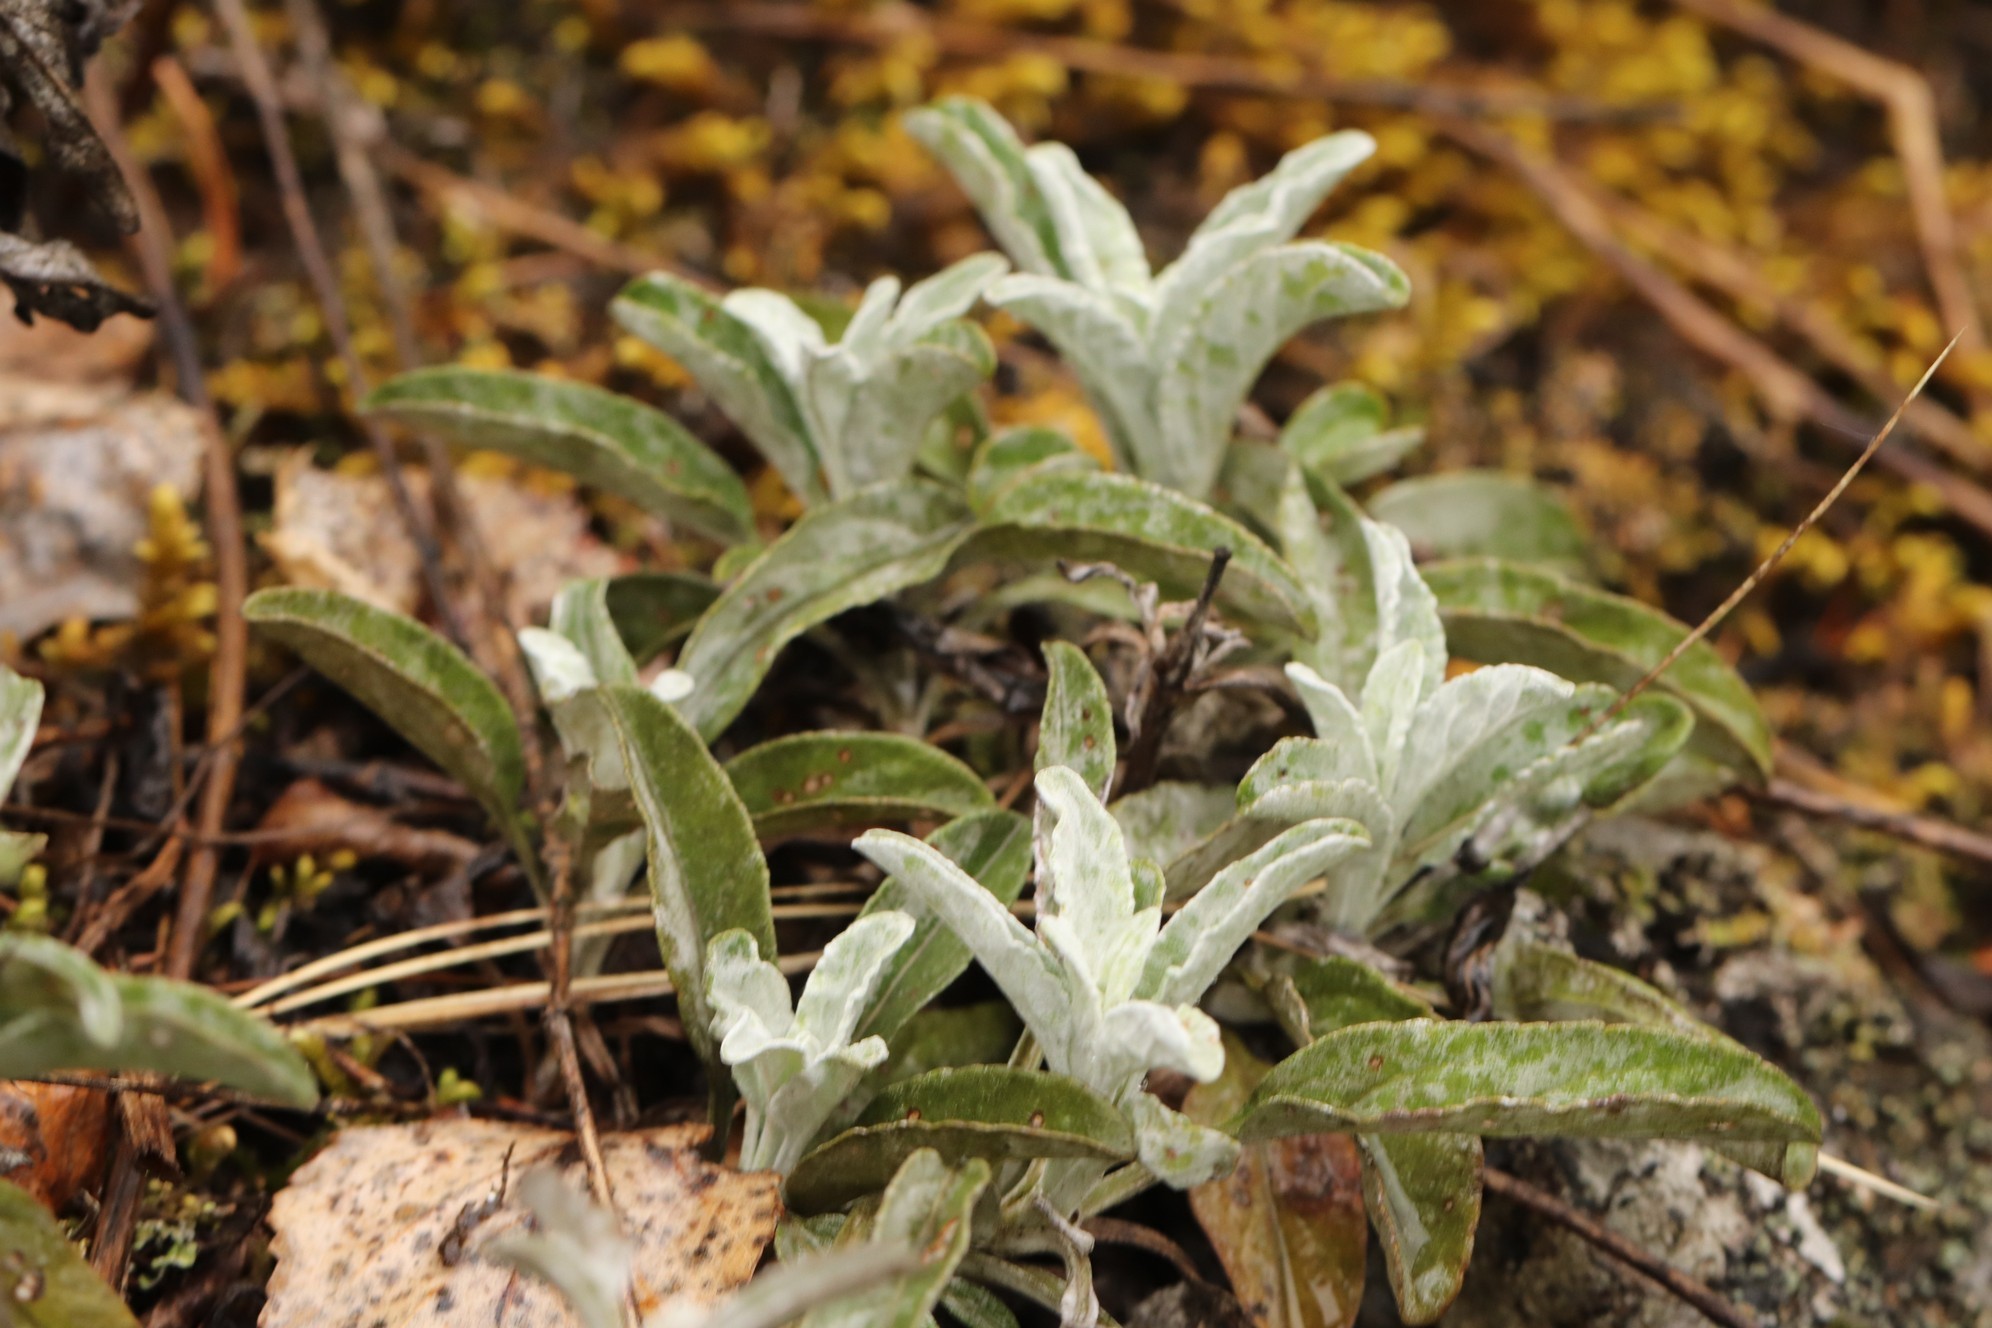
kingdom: Plantae
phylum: Tracheophyta
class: Magnoliopsida
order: Lamiales
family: Plantaginaceae
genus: Veronica
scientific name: Veronica incana
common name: Silver speedwell
